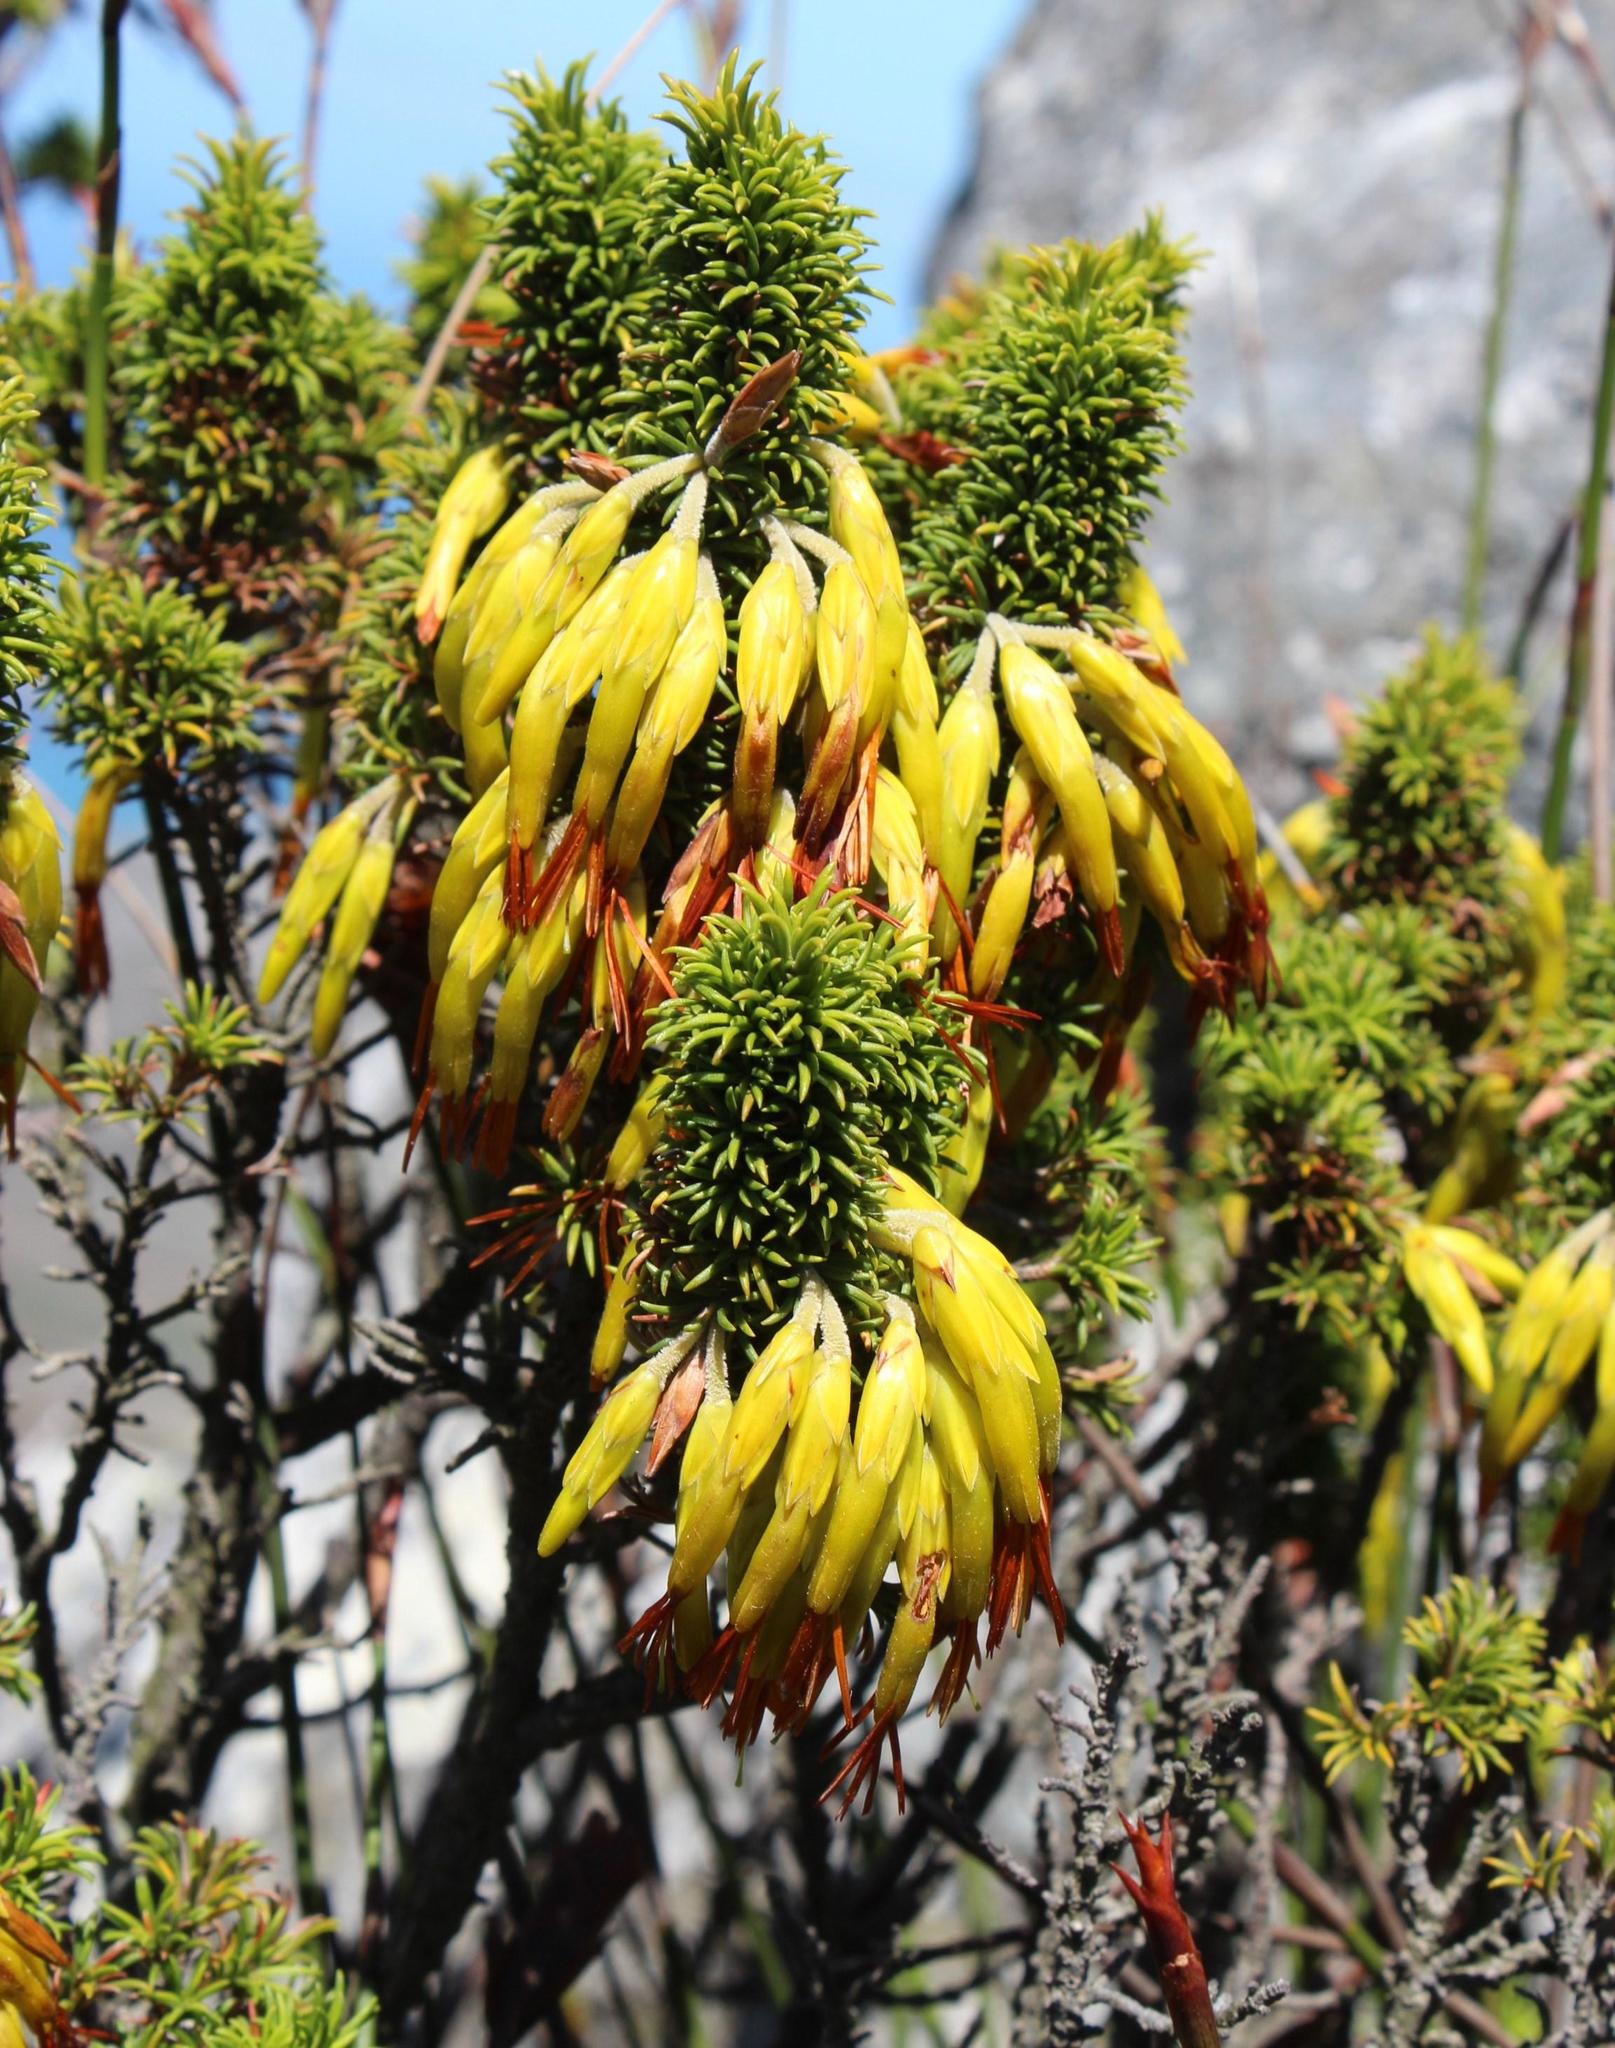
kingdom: Plantae
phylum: Tracheophyta
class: Magnoliopsida
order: Ericales
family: Ericaceae
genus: Erica
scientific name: Erica coccinea
